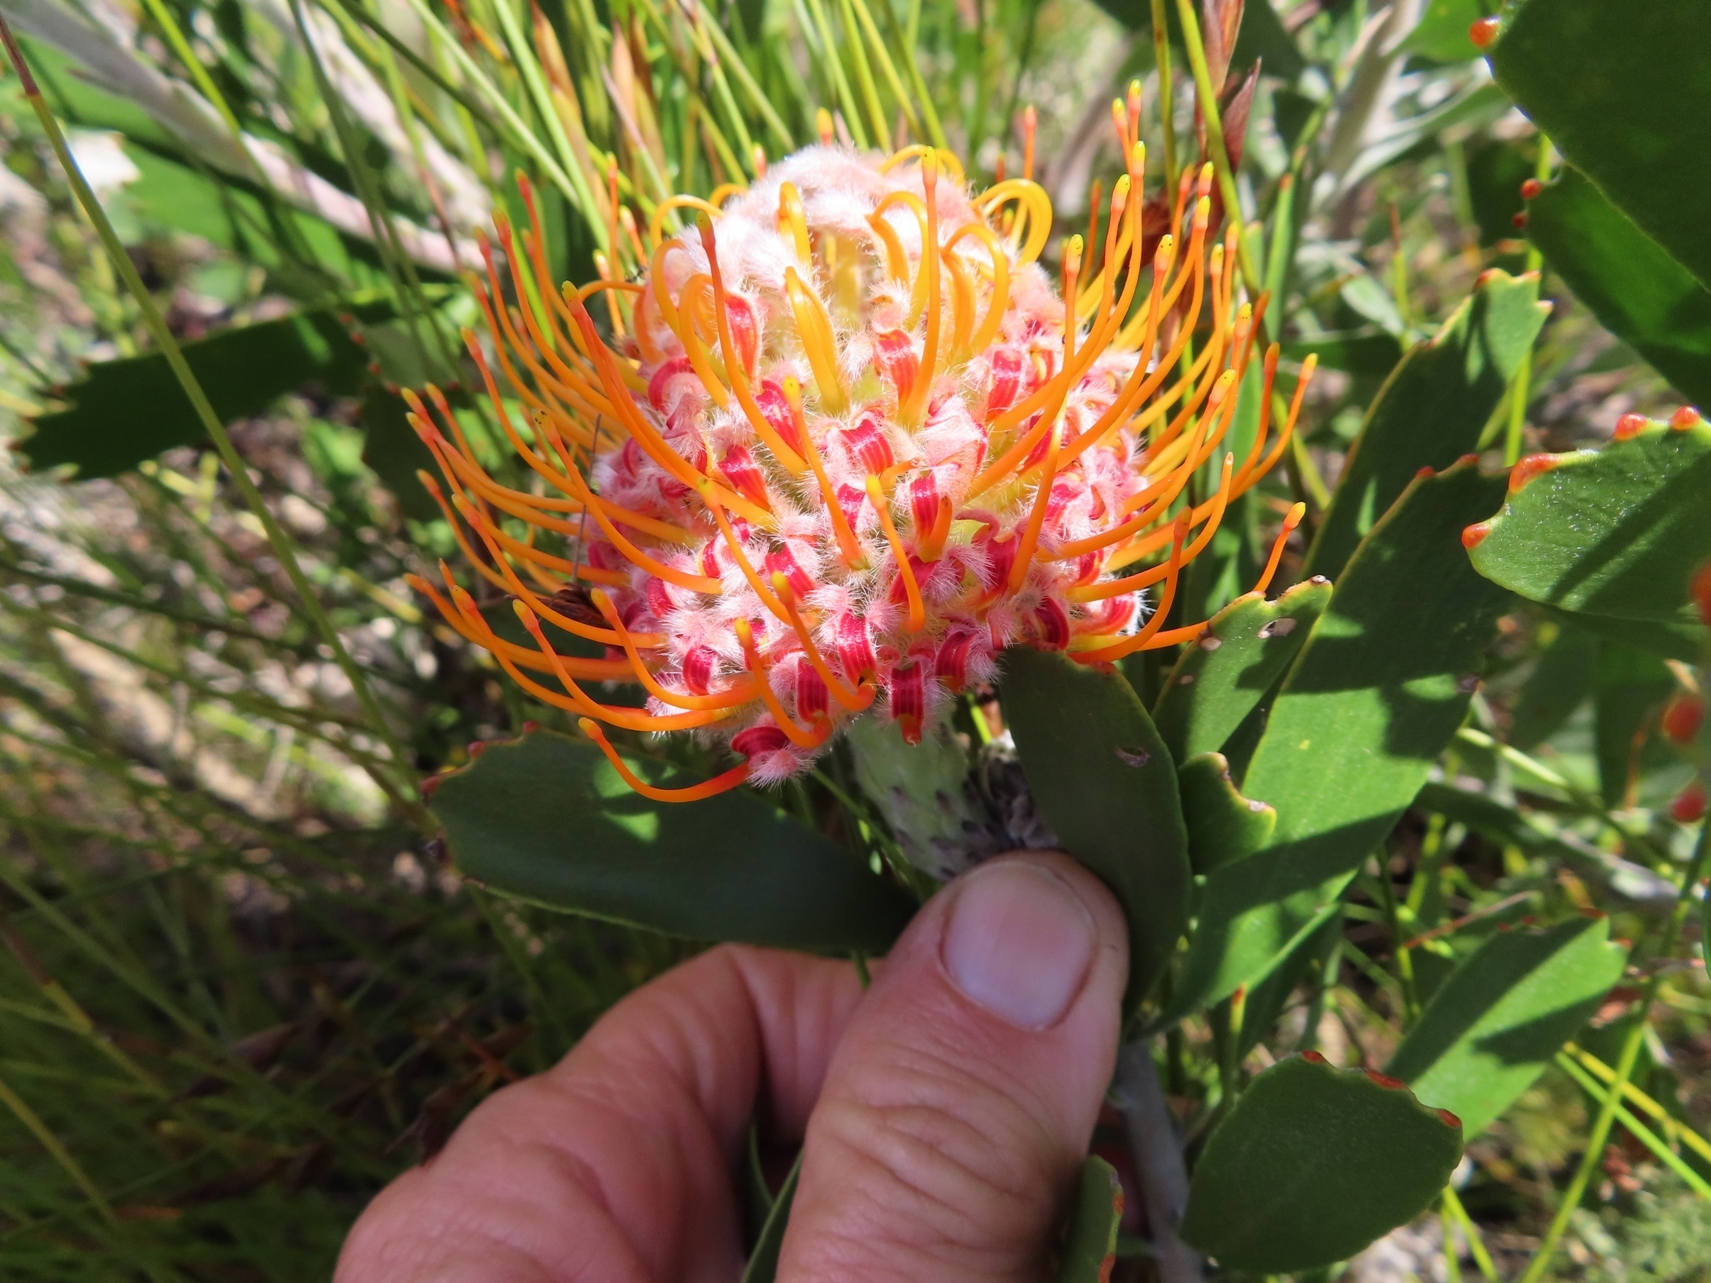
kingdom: Plantae
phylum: Tracheophyta
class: Magnoliopsida
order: Proteales
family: Proteaceae
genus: Leucospermum
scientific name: Leucospermum truncatum
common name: Limestone pincushion
